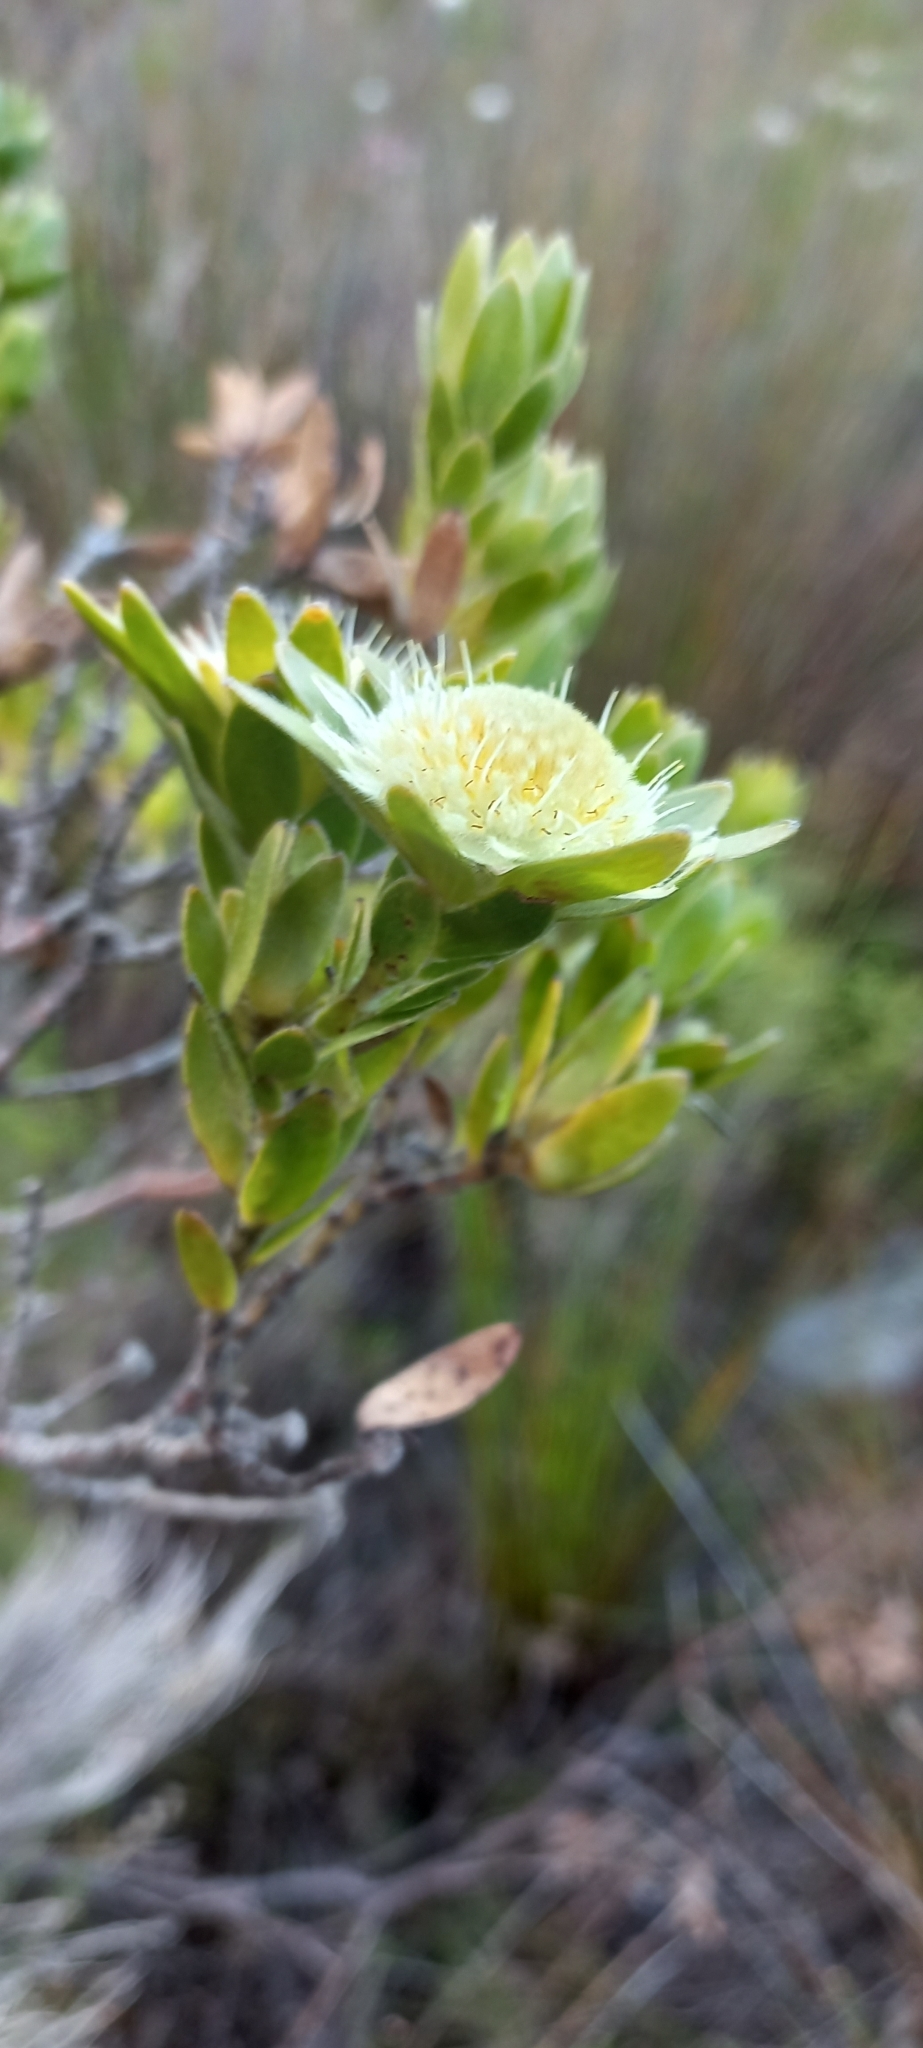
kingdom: Plantae
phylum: Tracheophyta
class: Magnoliopsida
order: Proteales
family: Proteaceae
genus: Diastella
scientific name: Diastella thymelaeoides
